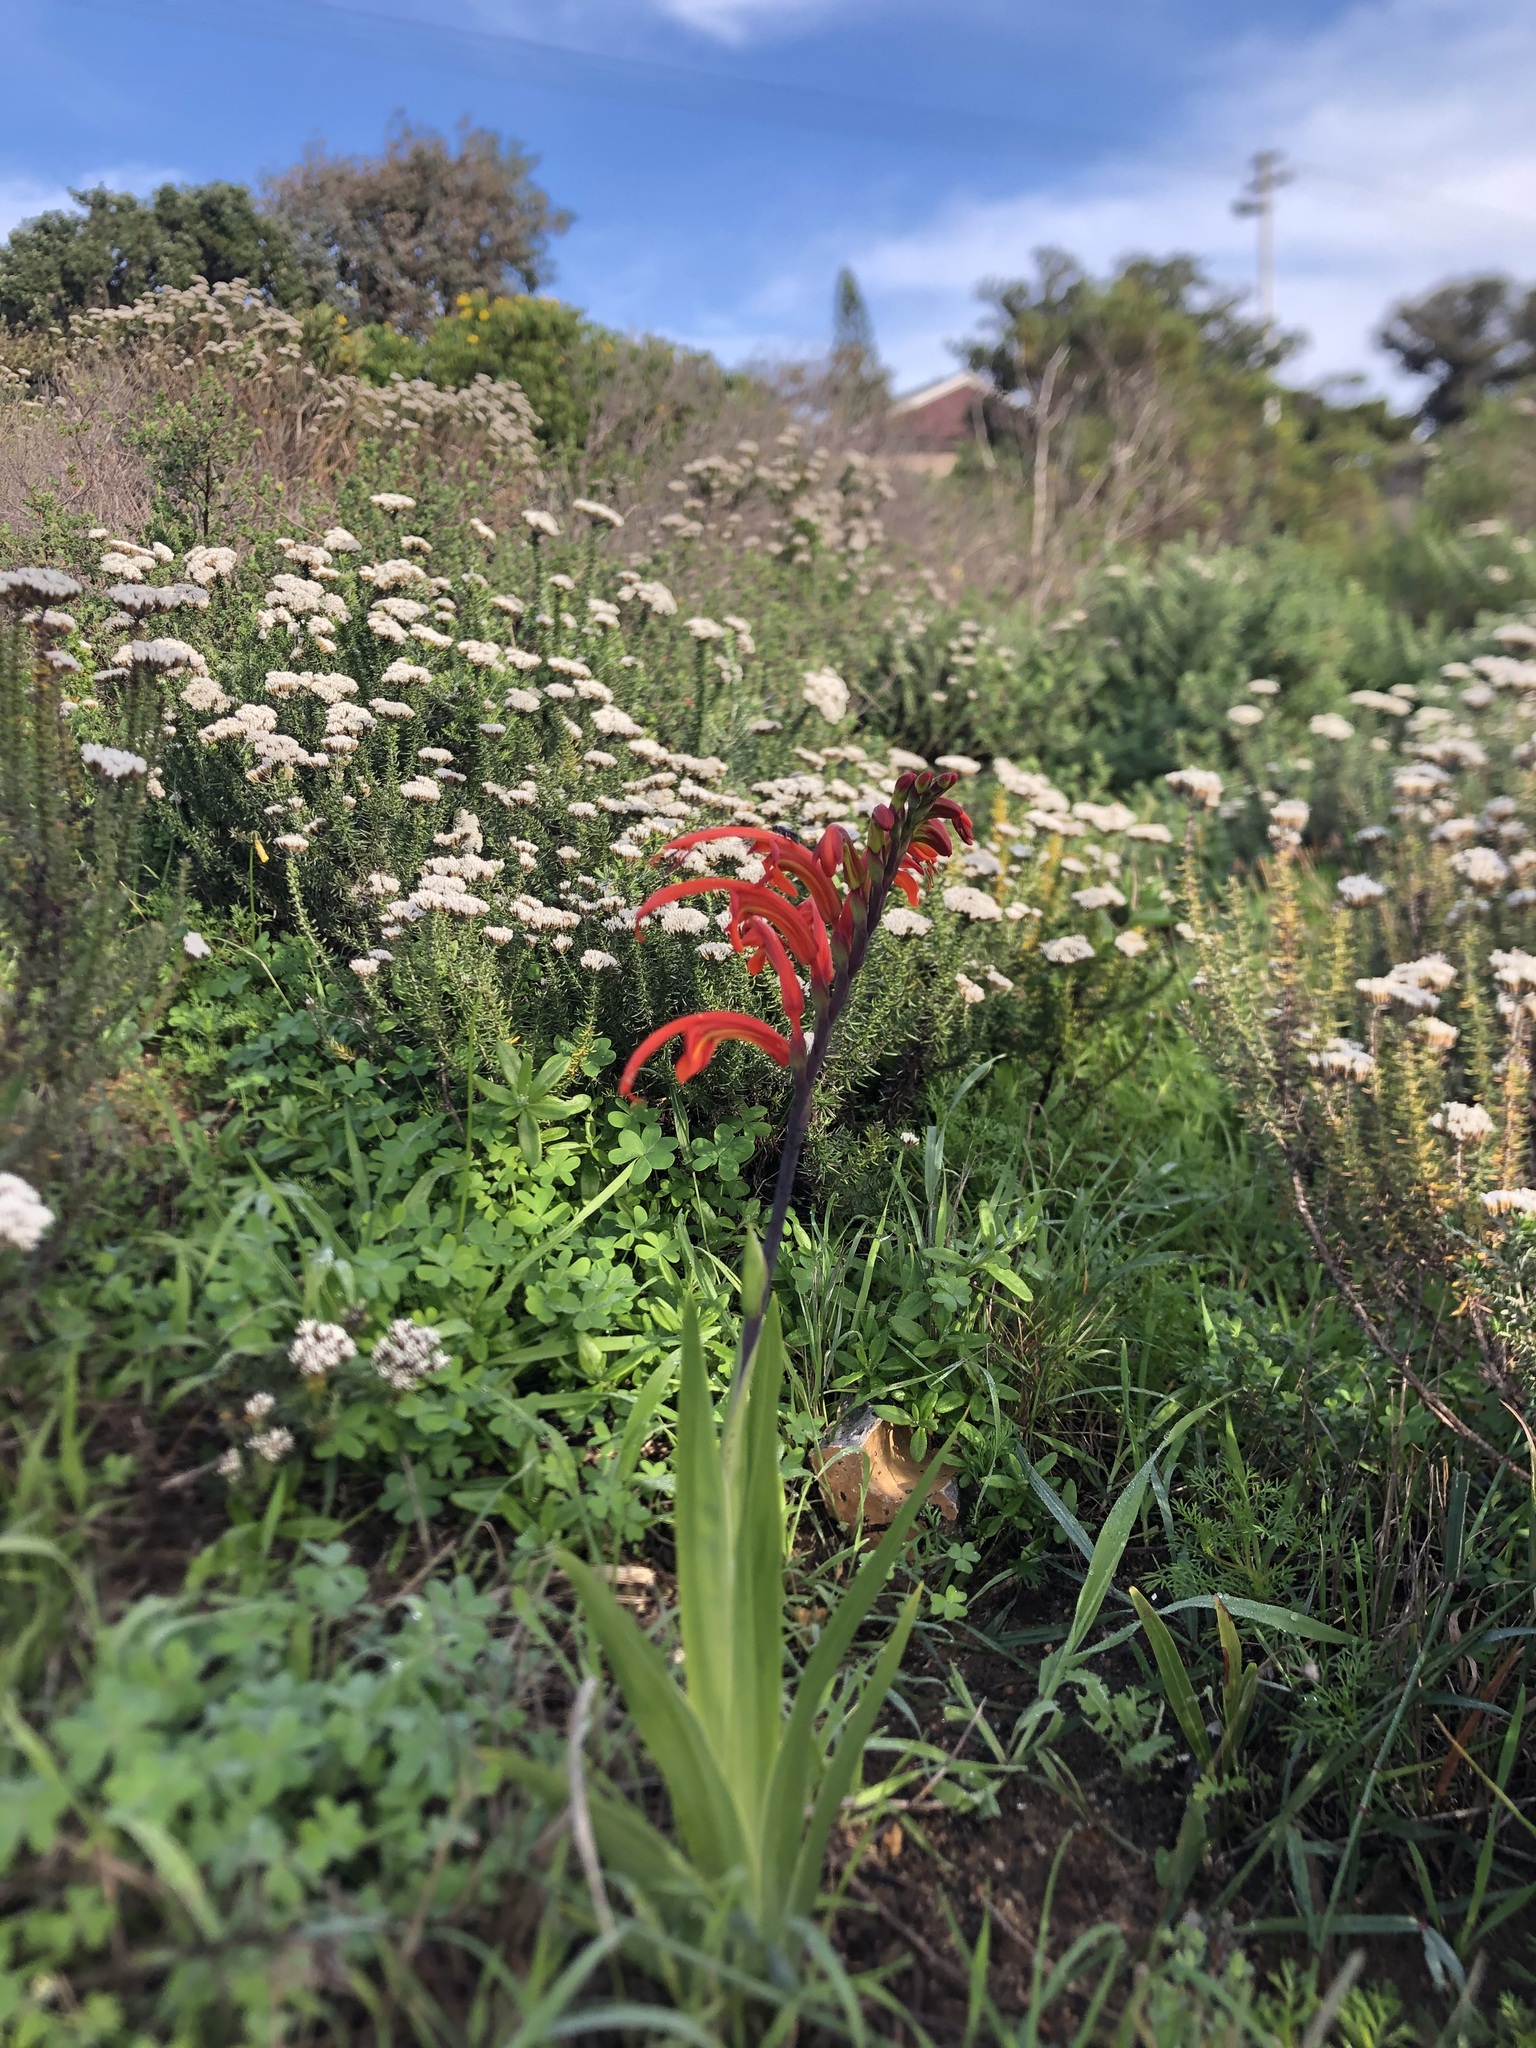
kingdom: Plantae
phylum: Tracheophyta
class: Liliopsida
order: Asparagales
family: Iridaceae
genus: Chasmanthe
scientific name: Chasmanthe aethiopica
